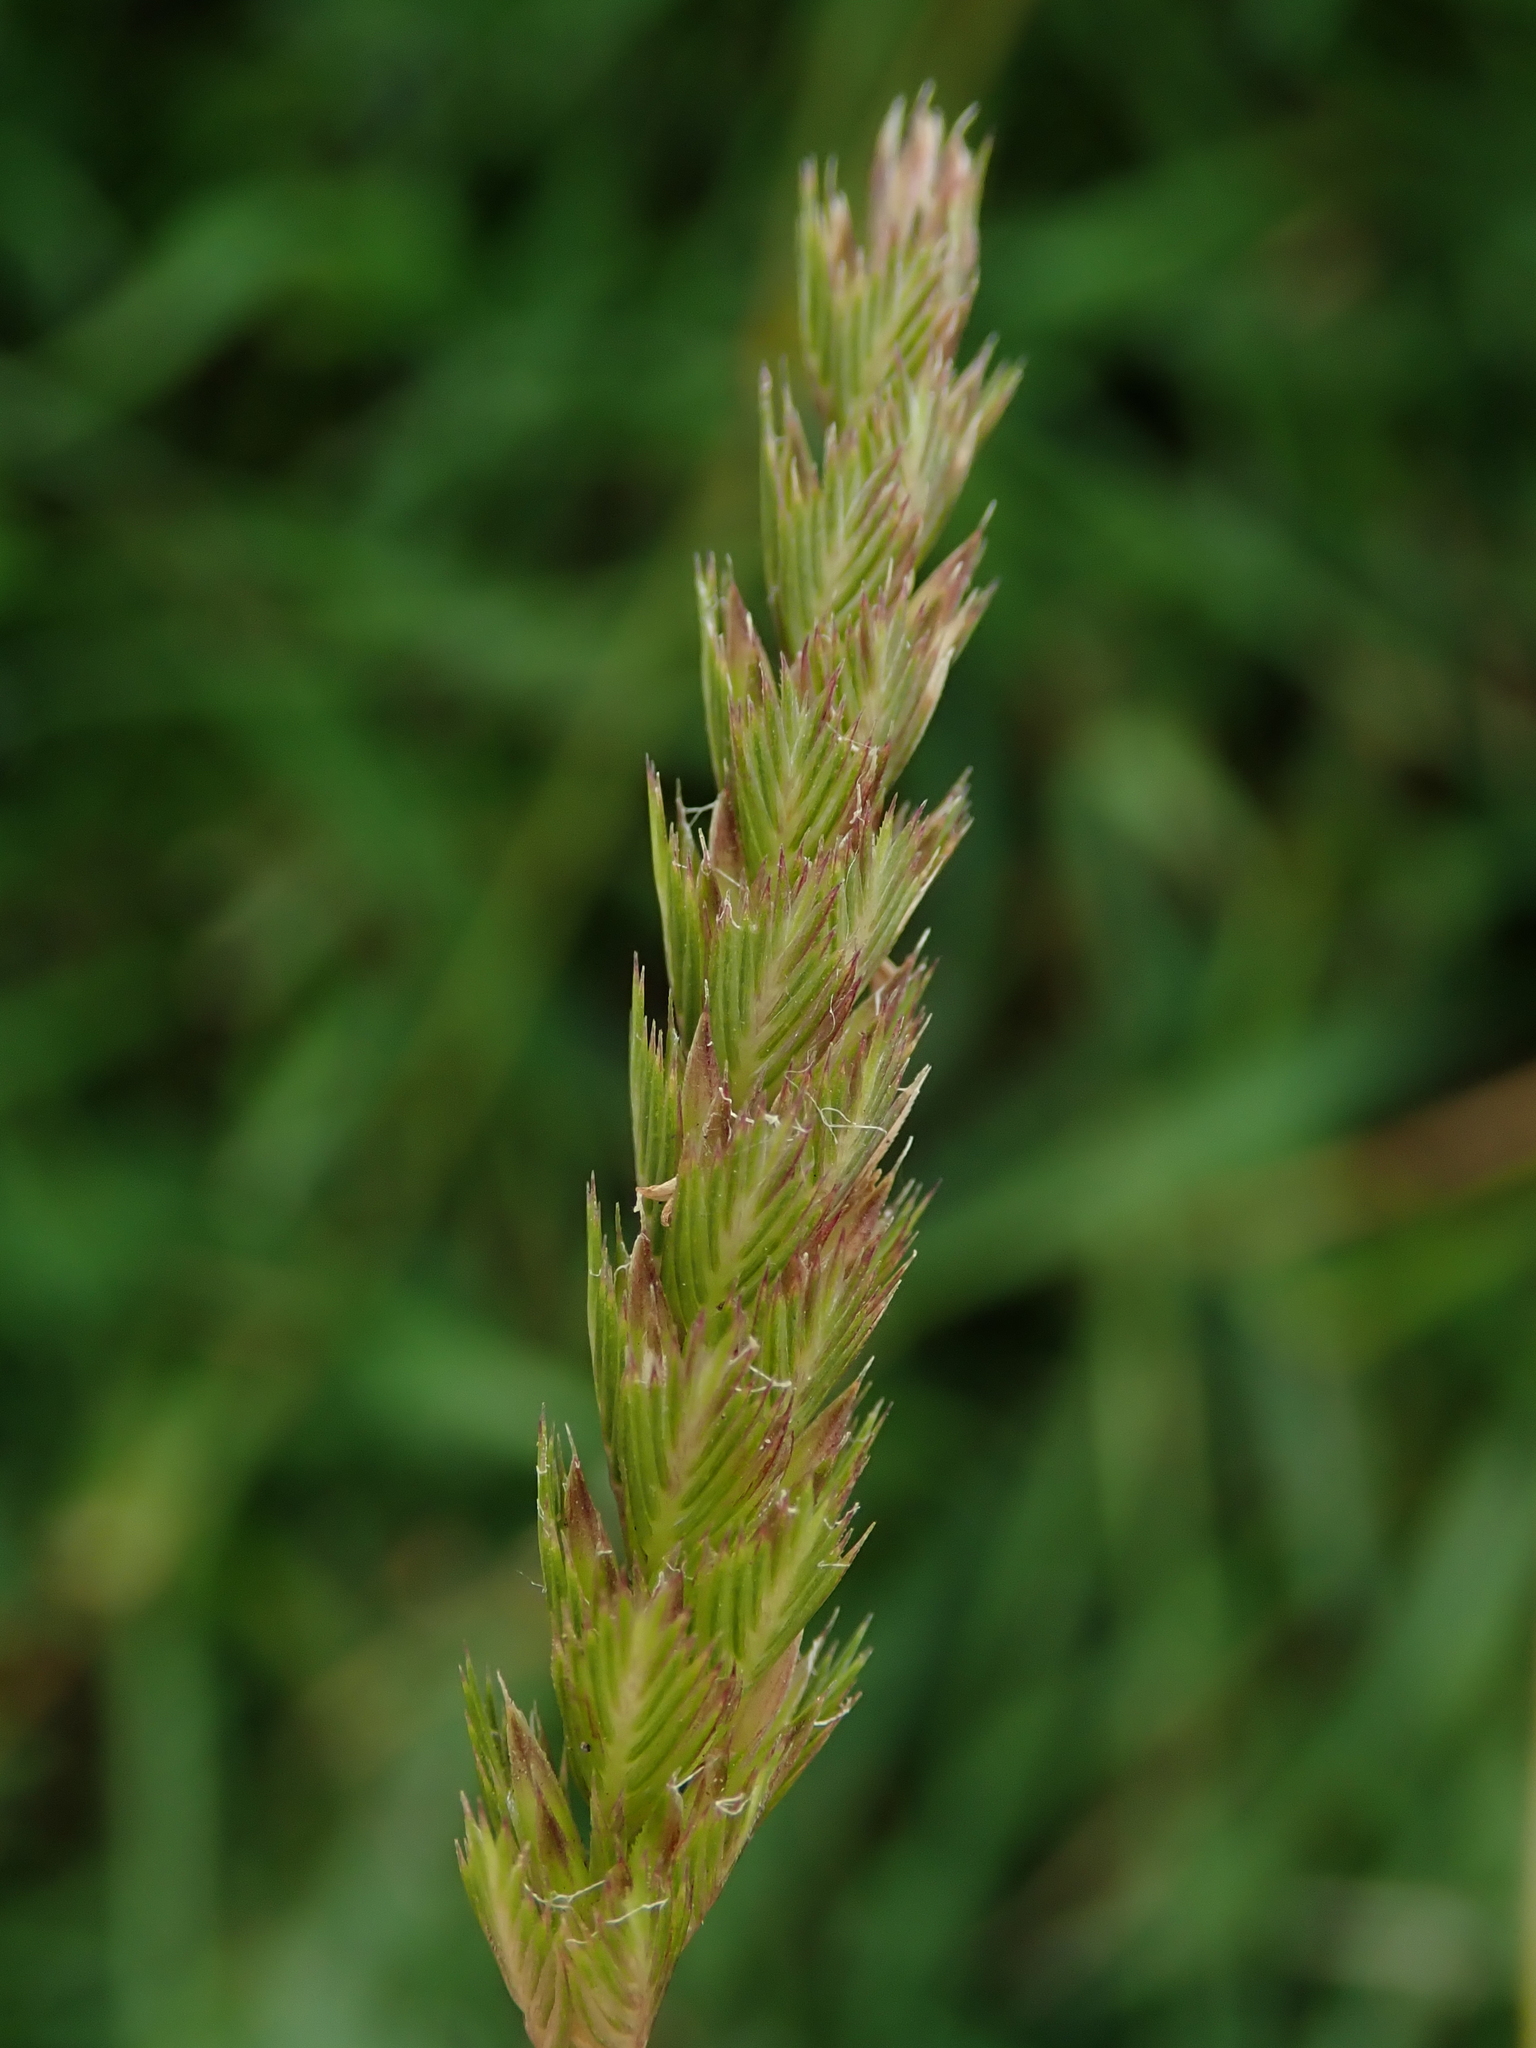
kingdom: Plantae
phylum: Tracheophyta
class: Liliopsida
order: Poales
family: Poaceae
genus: Cynosurus
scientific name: Cynosurus cristatus
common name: Crested dog's-tail
